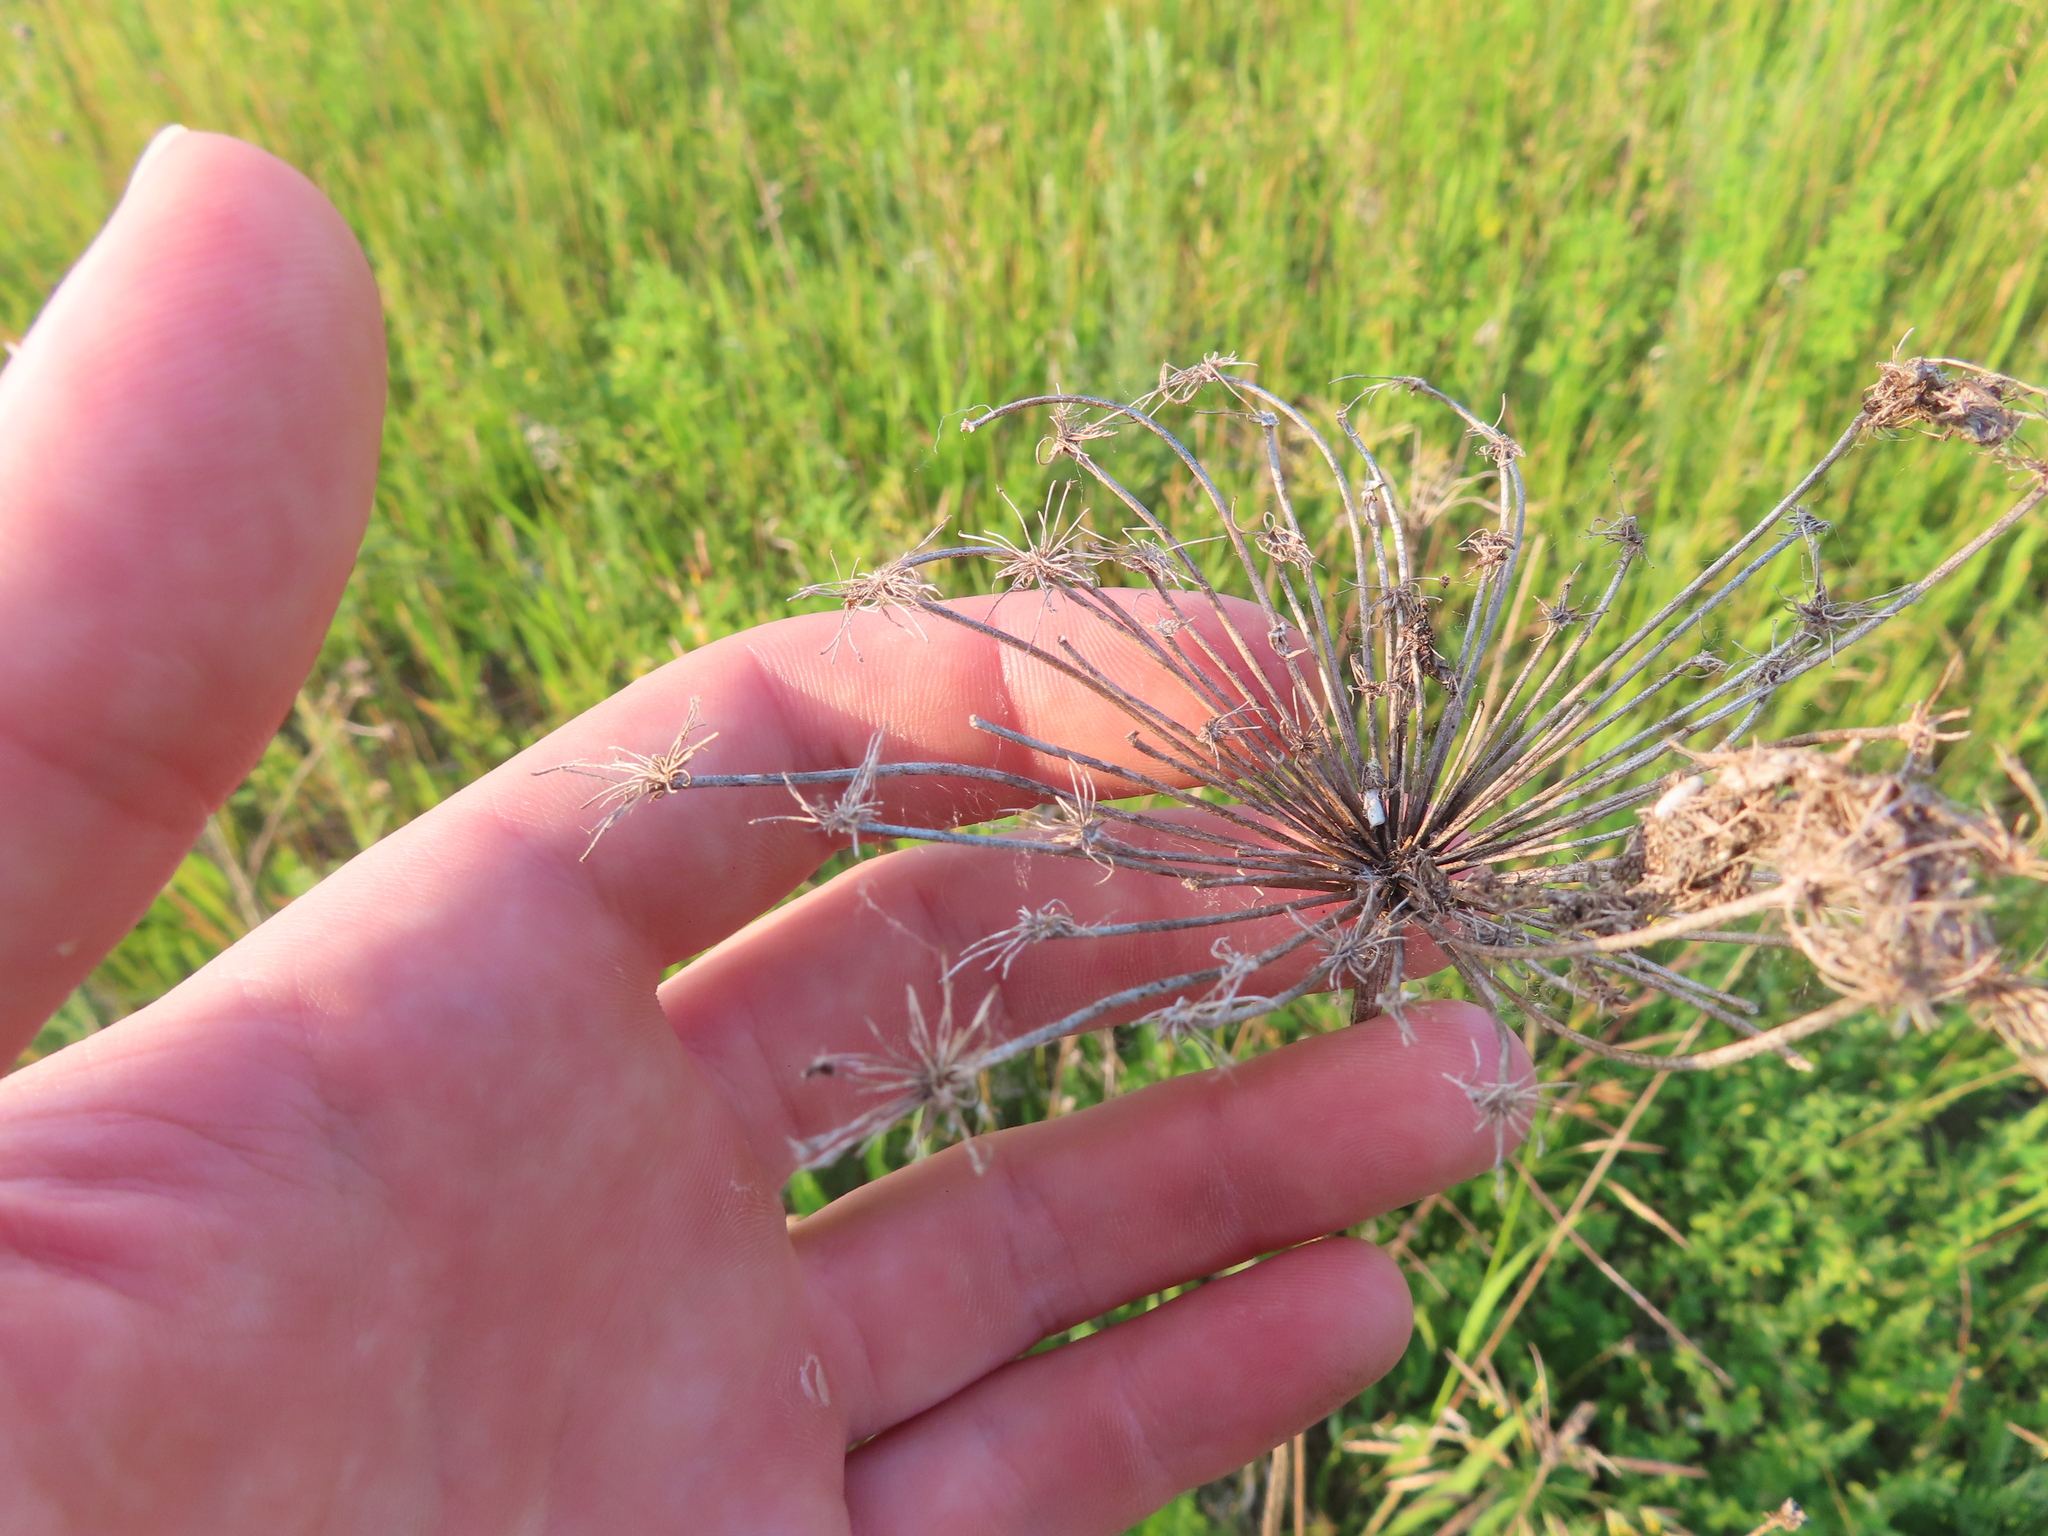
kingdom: Plantae
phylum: Tracheophyta
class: Magnoliopsida
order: Apiales
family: Apiaceae
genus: Daucus
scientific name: Daucus carota
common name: Wild carrot
